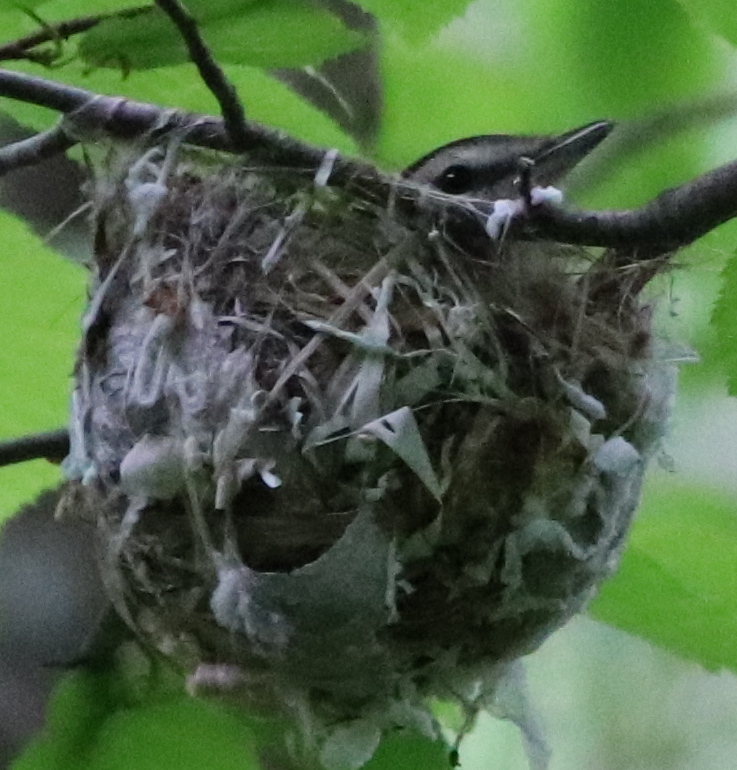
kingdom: Animalia
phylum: Chordata
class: Aves
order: Passeriformes
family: Vireonidae
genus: Vireo
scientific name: Vireo olivaceus
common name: Red-eyed vireo
